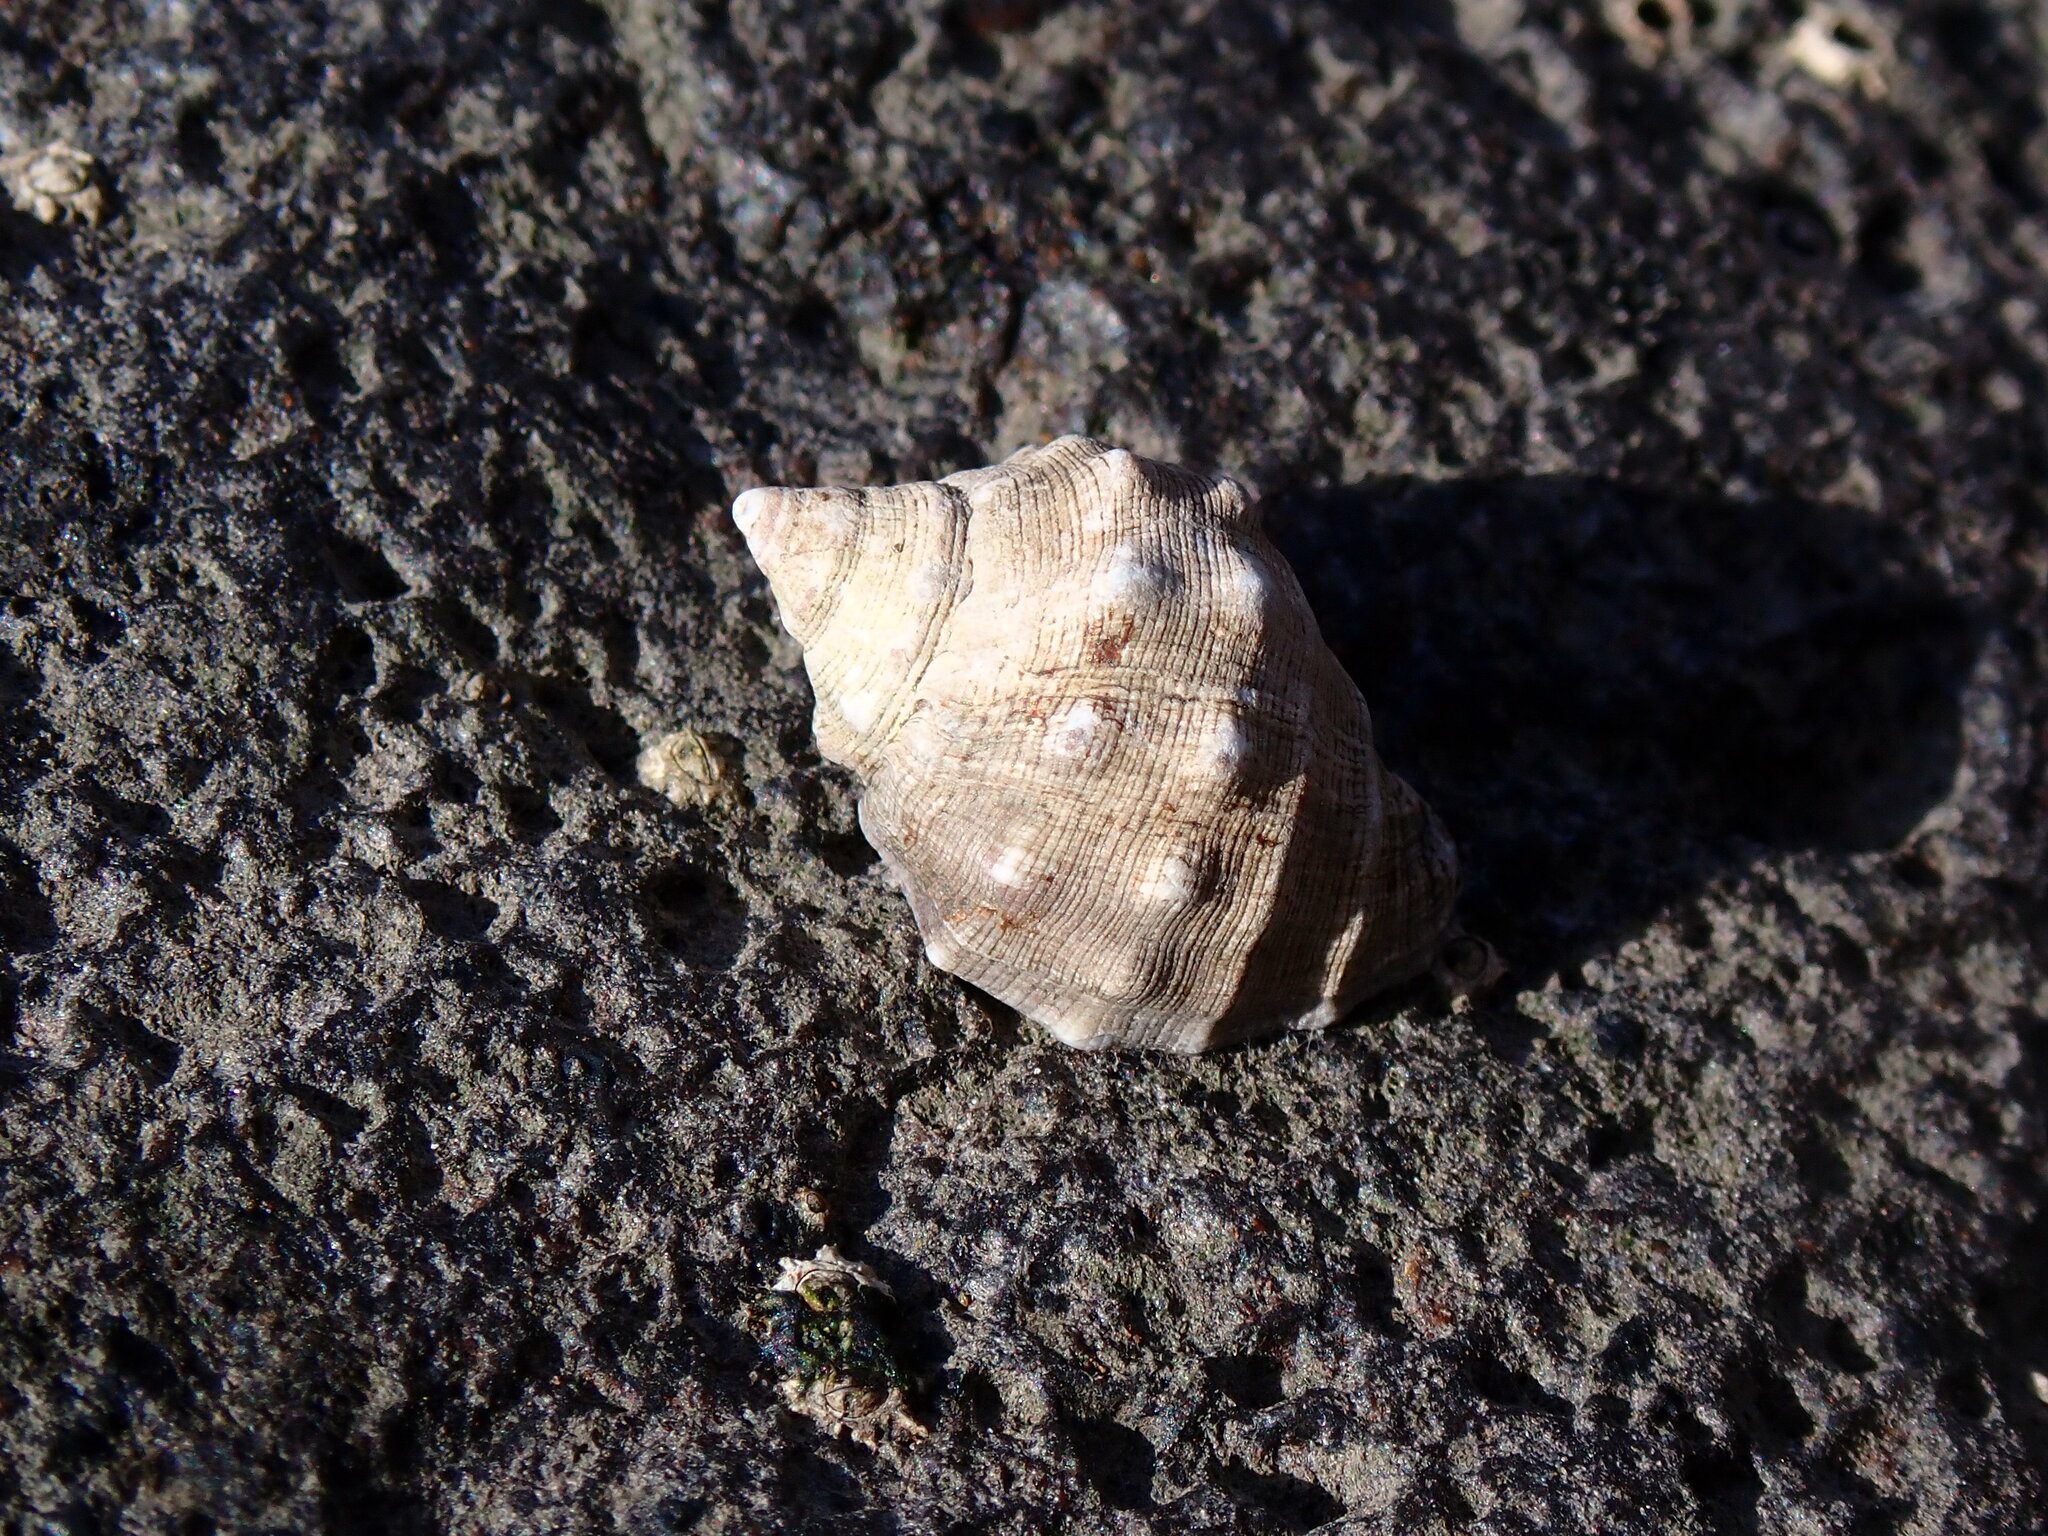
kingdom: Animalia
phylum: Mollusca
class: Gastropoda
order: Neogastropoda
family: Muricidae
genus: Stramonita
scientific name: Stramonita haemastoma
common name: Florida dog winkle
